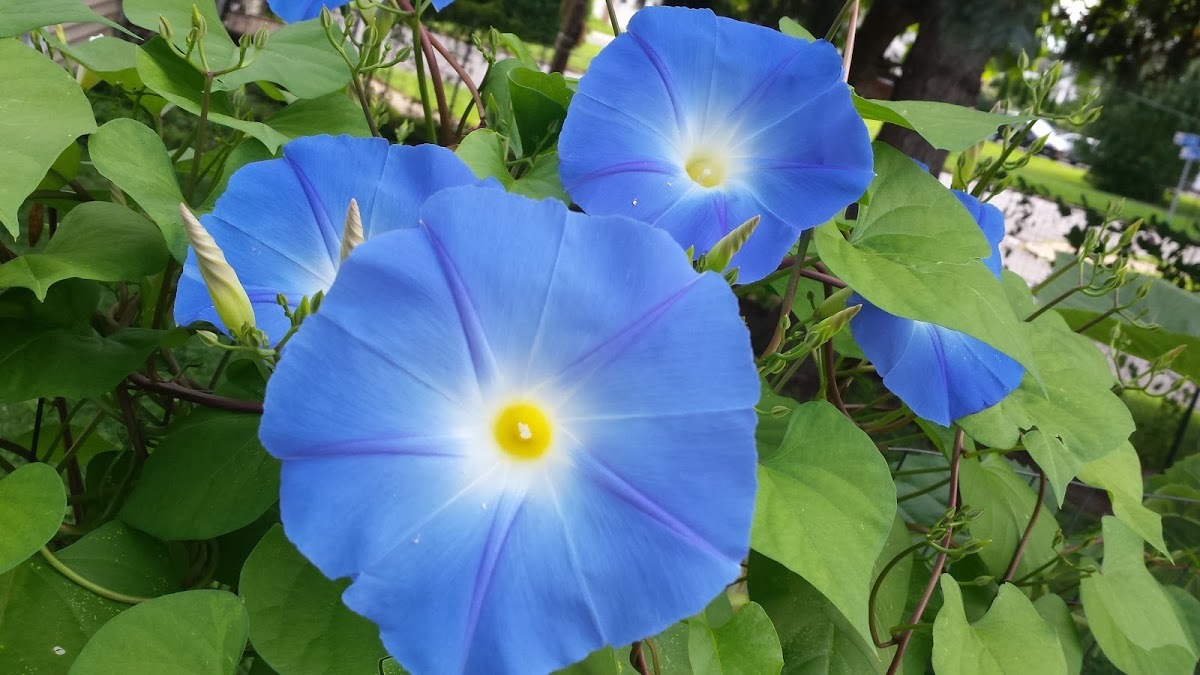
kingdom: Plantae
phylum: Tracheophyta
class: Magnoliopsida
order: Solanales
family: Convolvulaceae
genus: Ipomoea
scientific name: Ipomoea tricolor
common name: Morning-glory
